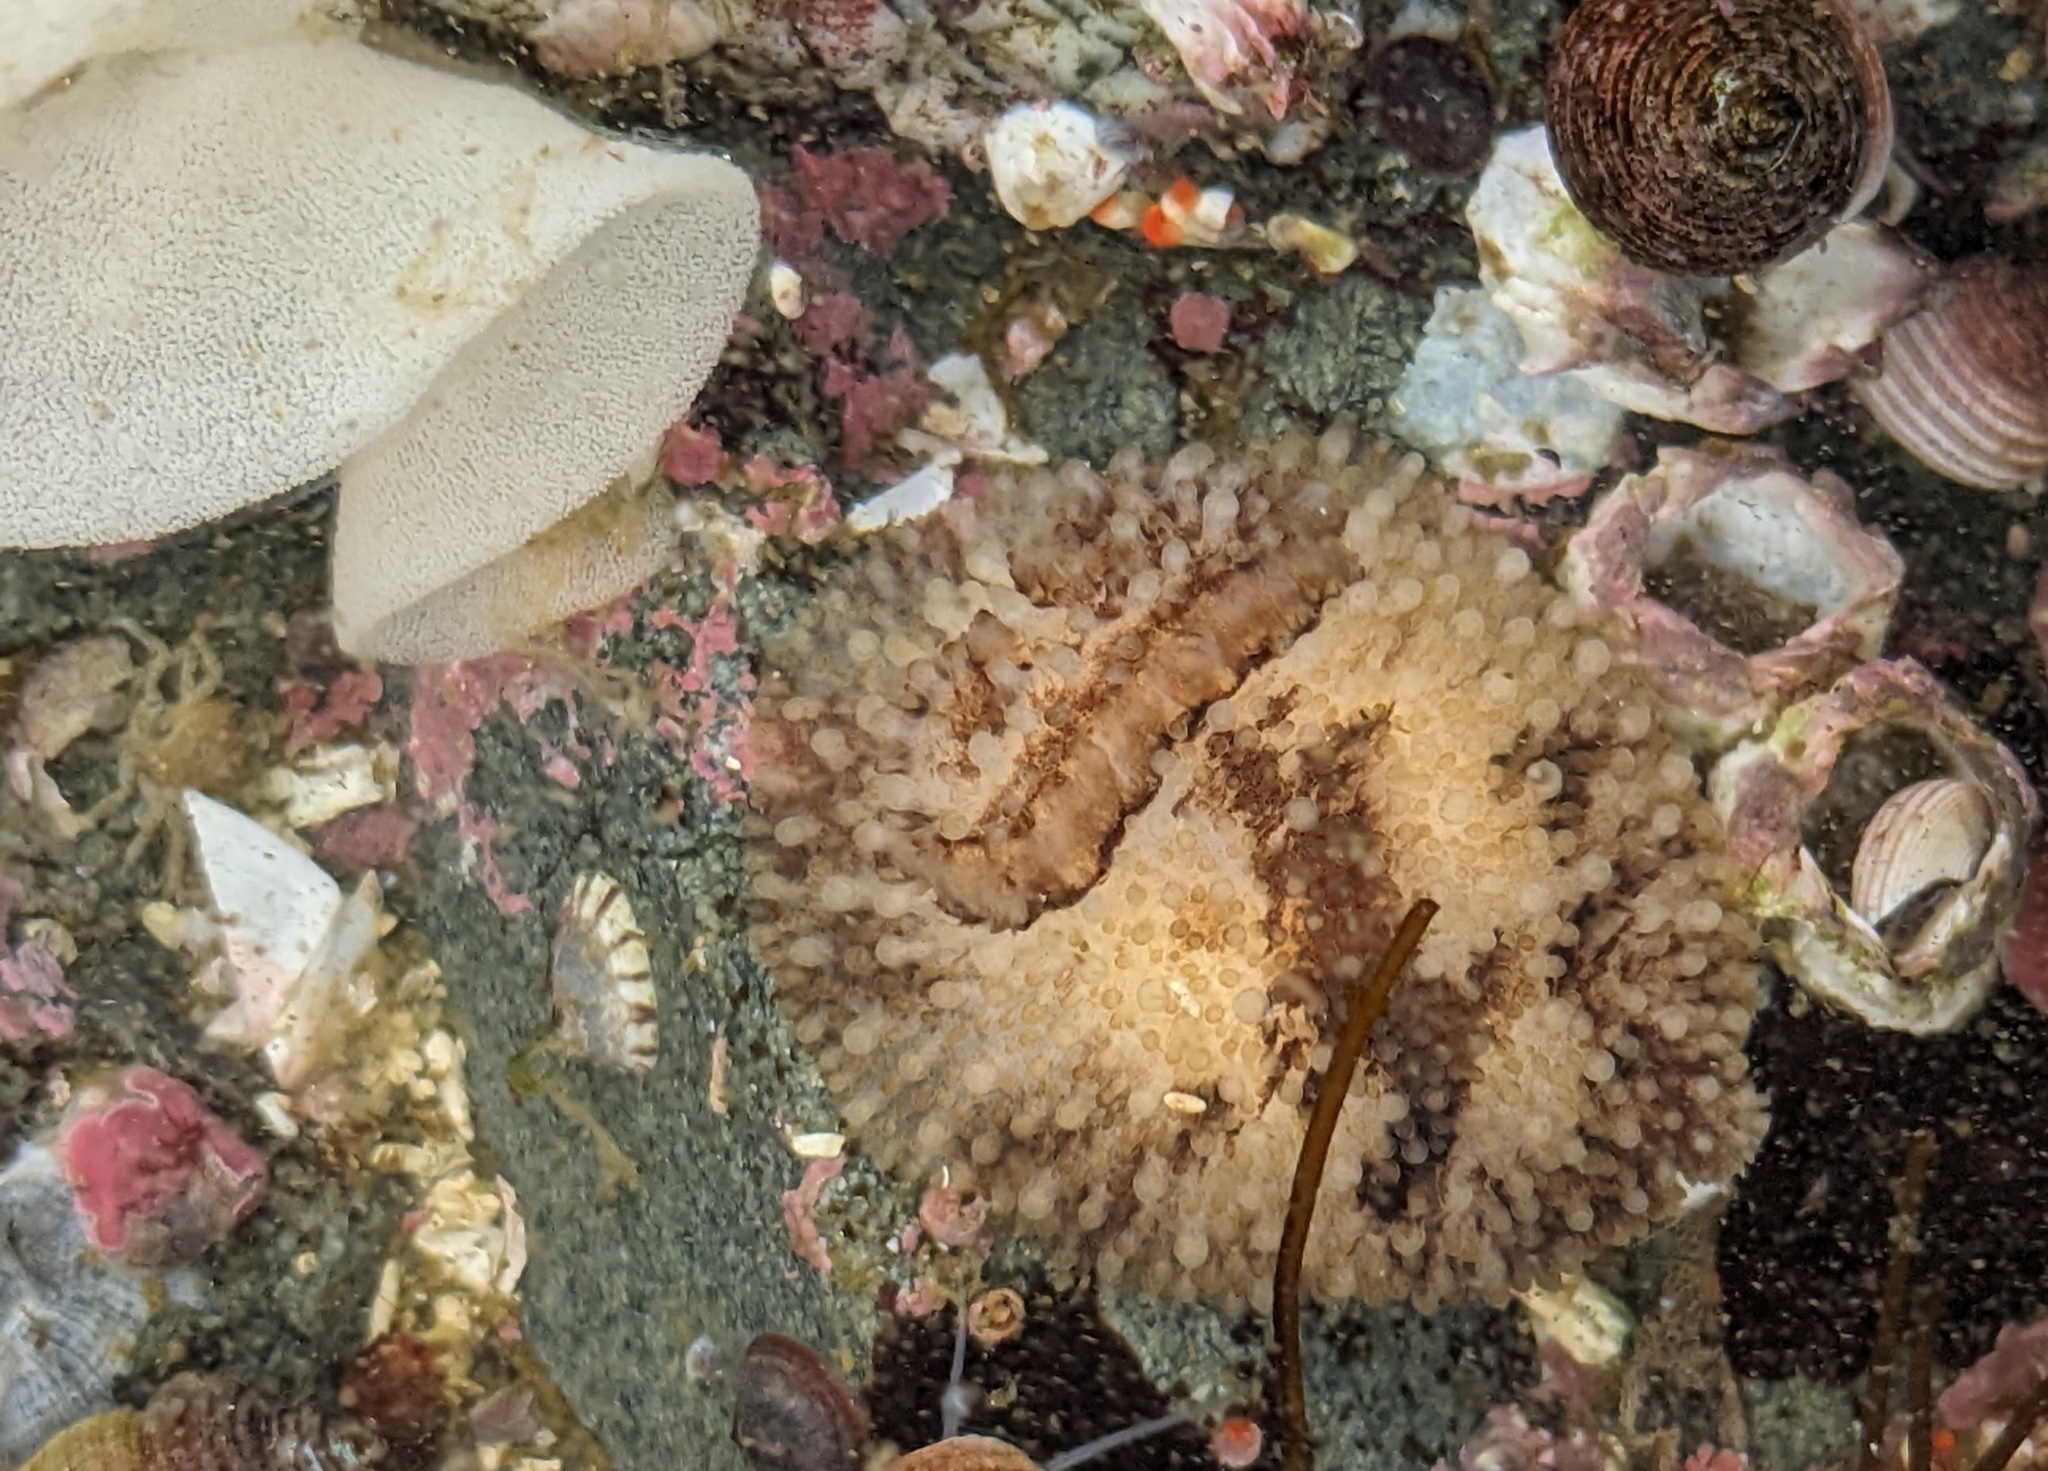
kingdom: Animalia
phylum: Mollusca
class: Gastropoda
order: Nudibranchia
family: Onchidorididae
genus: Onchidoris
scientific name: Onchidoris bilamellata
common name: Barnacle-eating onchidoris
